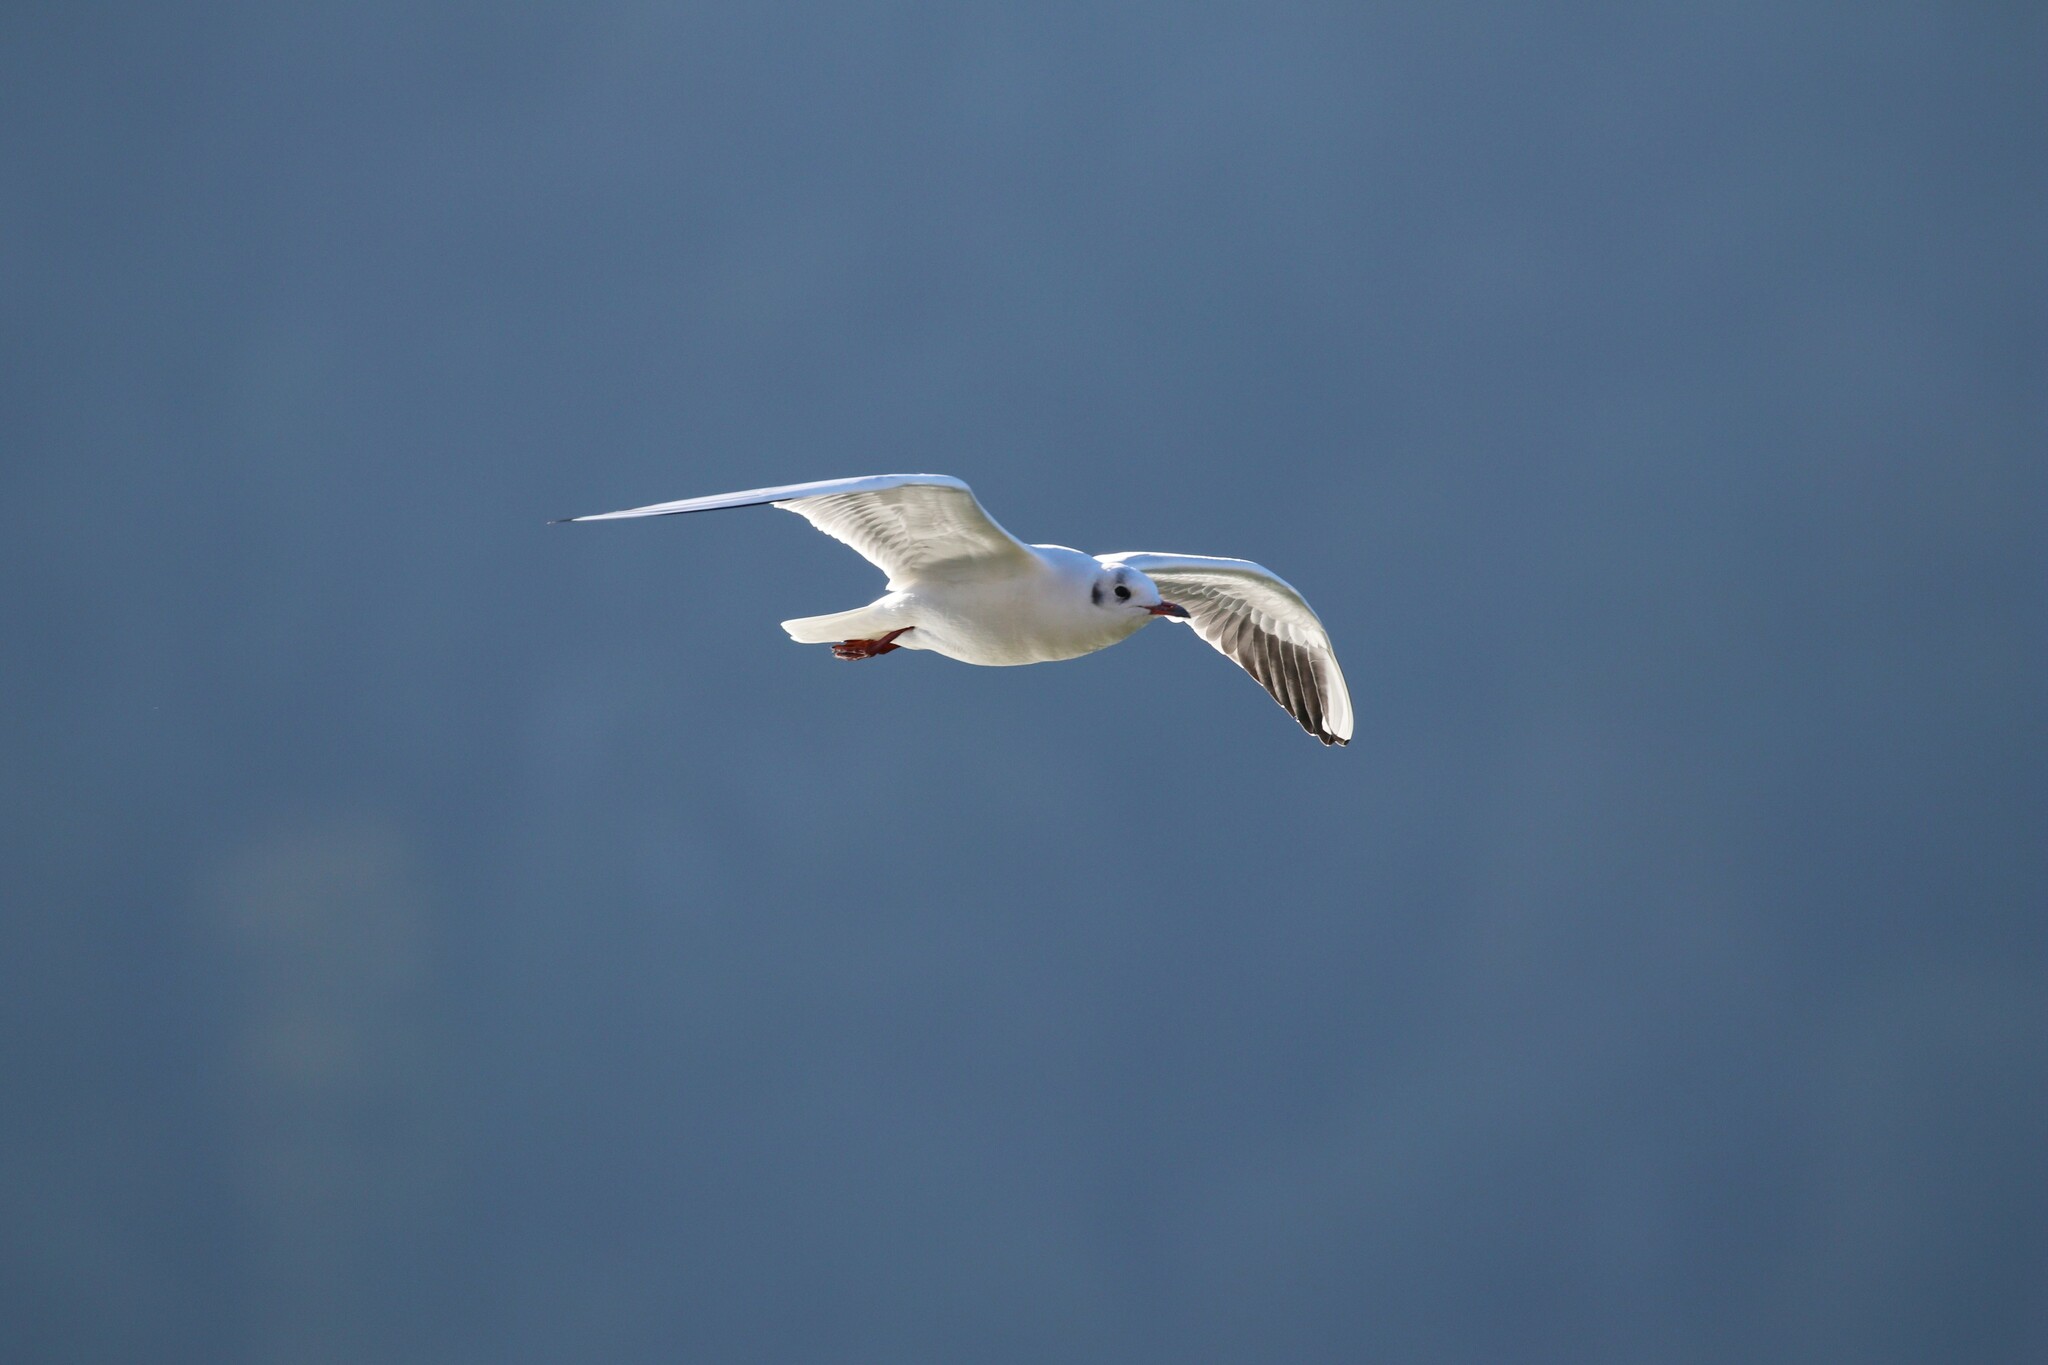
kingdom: Animalia
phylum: Chordata
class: Aves
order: Charadriiformes
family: Laridae
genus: Chroicocephalus
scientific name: Chroicocephalus ridibundus
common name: Black-headed gull
